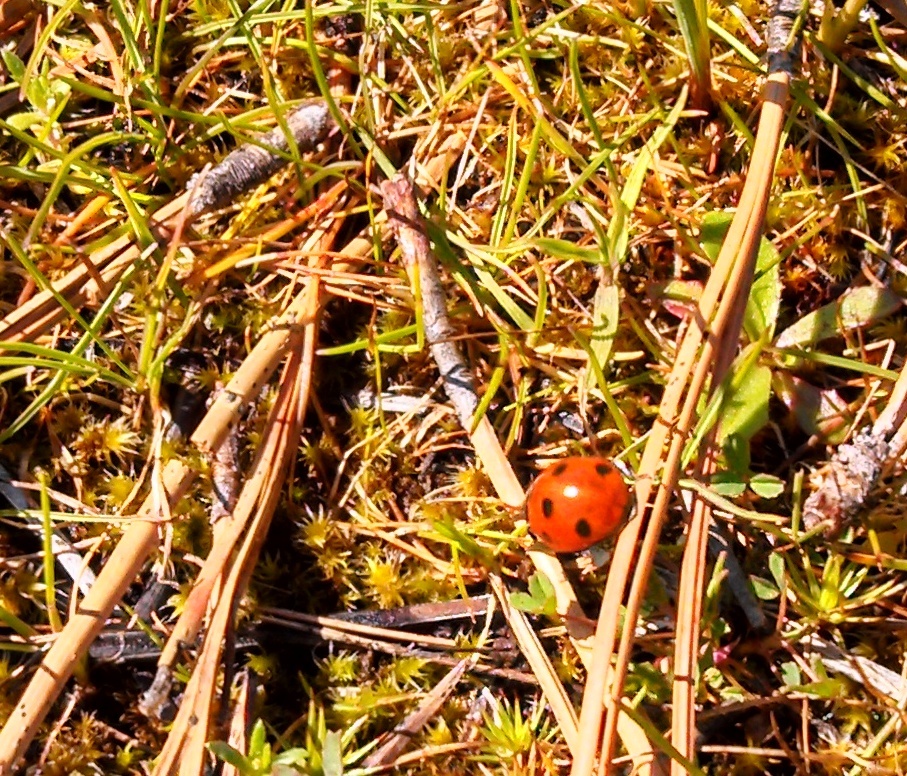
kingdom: Animalia
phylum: Arthropoda
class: Insecta
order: Coleoptera
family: Coccinellidae
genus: Coccinella
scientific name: Coccinella septempunctata
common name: Sevenspotted lady beetle
